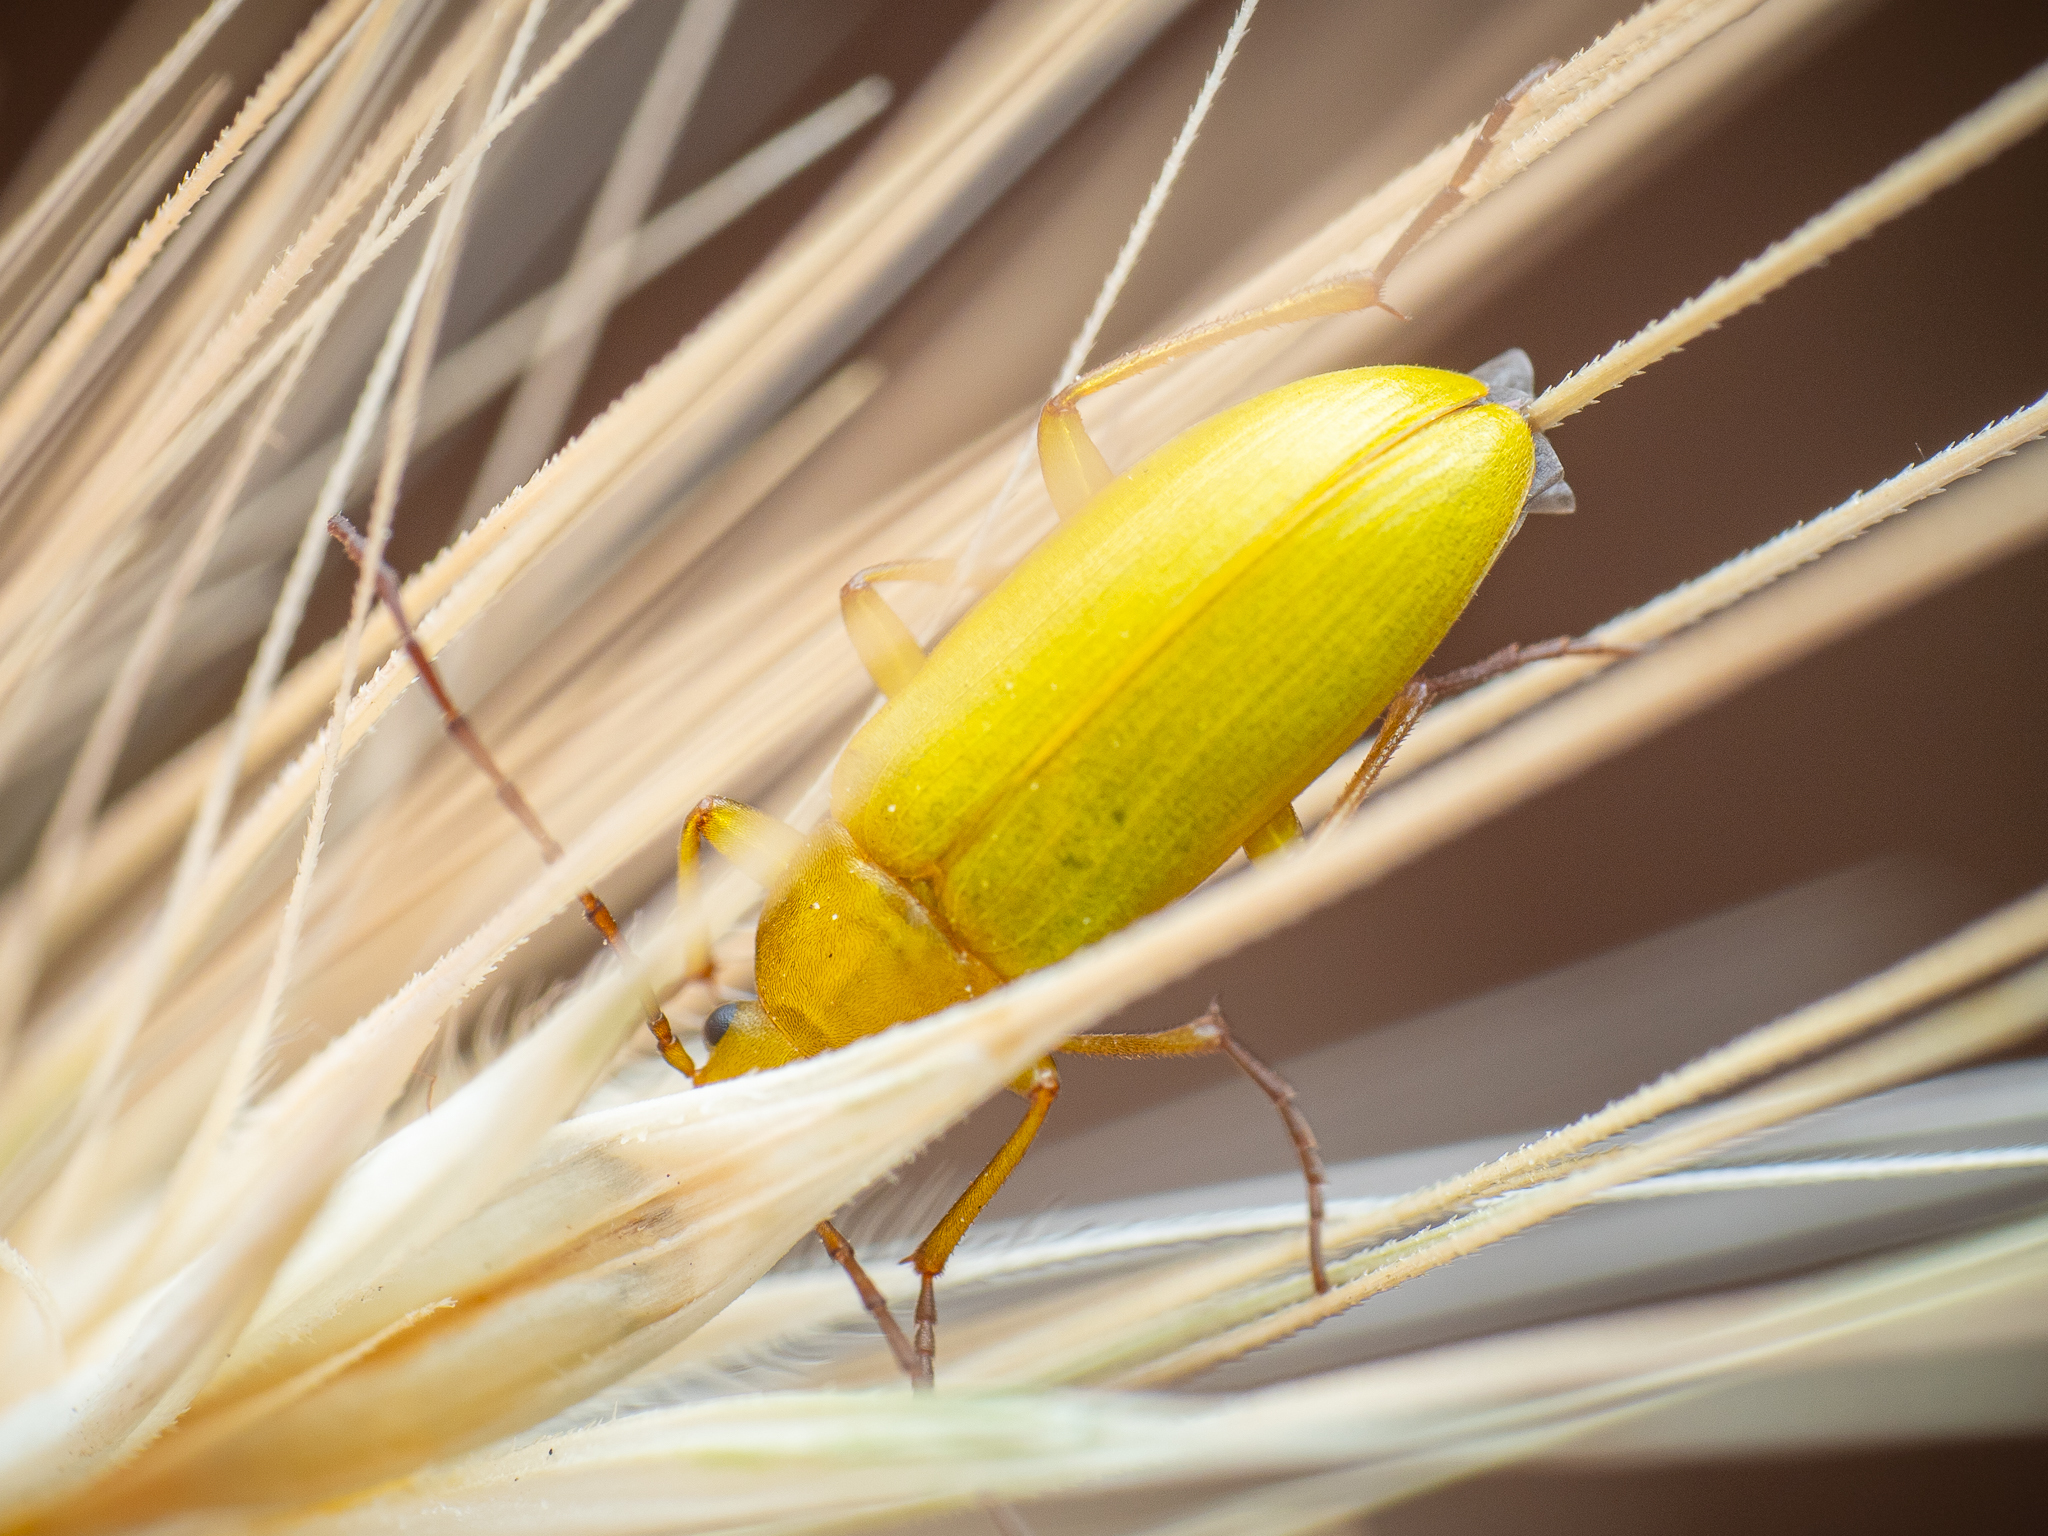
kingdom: Animalia
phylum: Arthropoda
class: Insecta
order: Coleoptera
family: Tenebrionidae
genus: Cteniopus
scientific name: Cteniopus sulphureus
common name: Sulphur beetle
